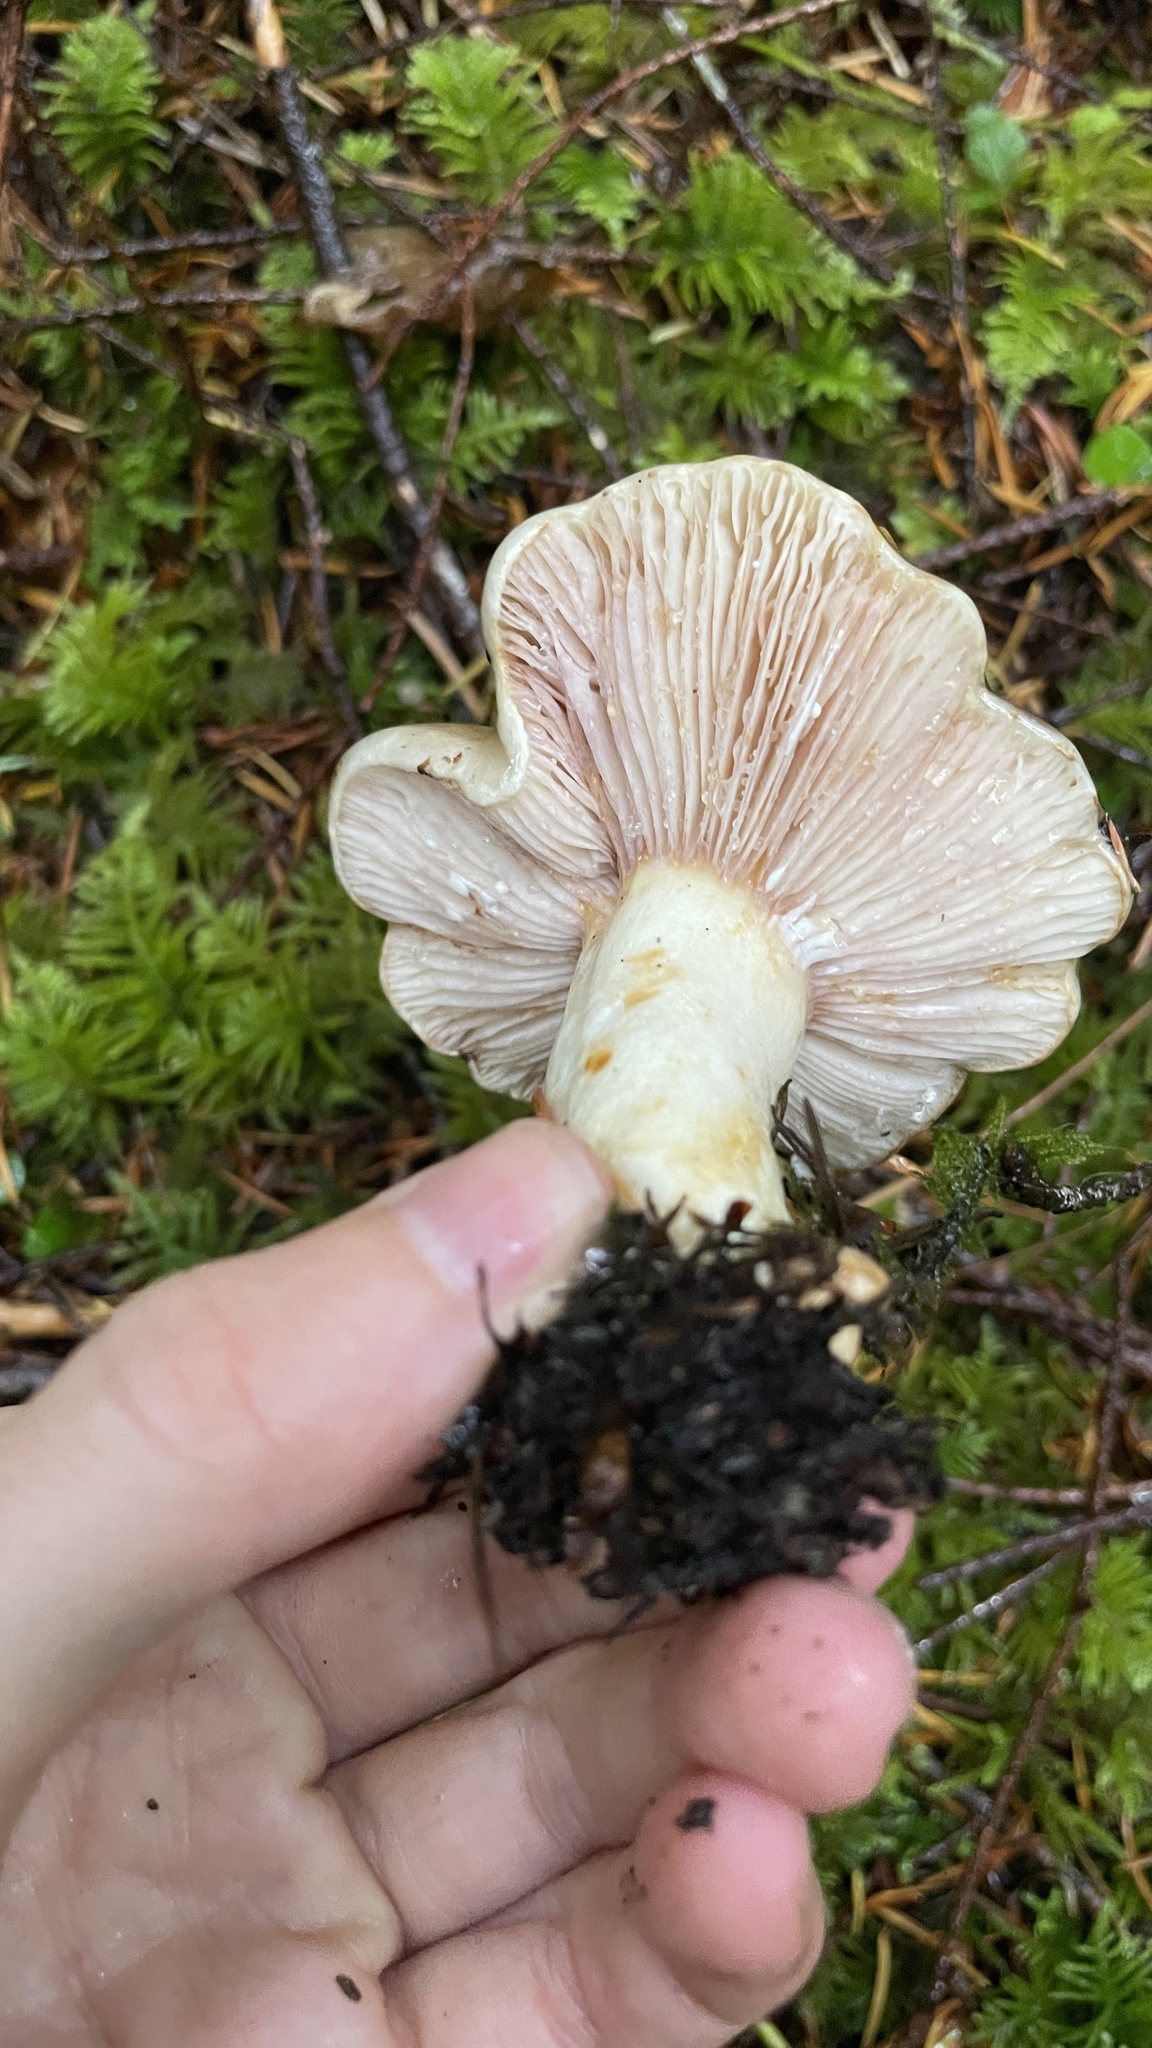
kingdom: Fungi
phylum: Basidiomycota
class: Agaricomycetes
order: Russulales
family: Russulaceae
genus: Lactarius
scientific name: Lactarius pallescens
